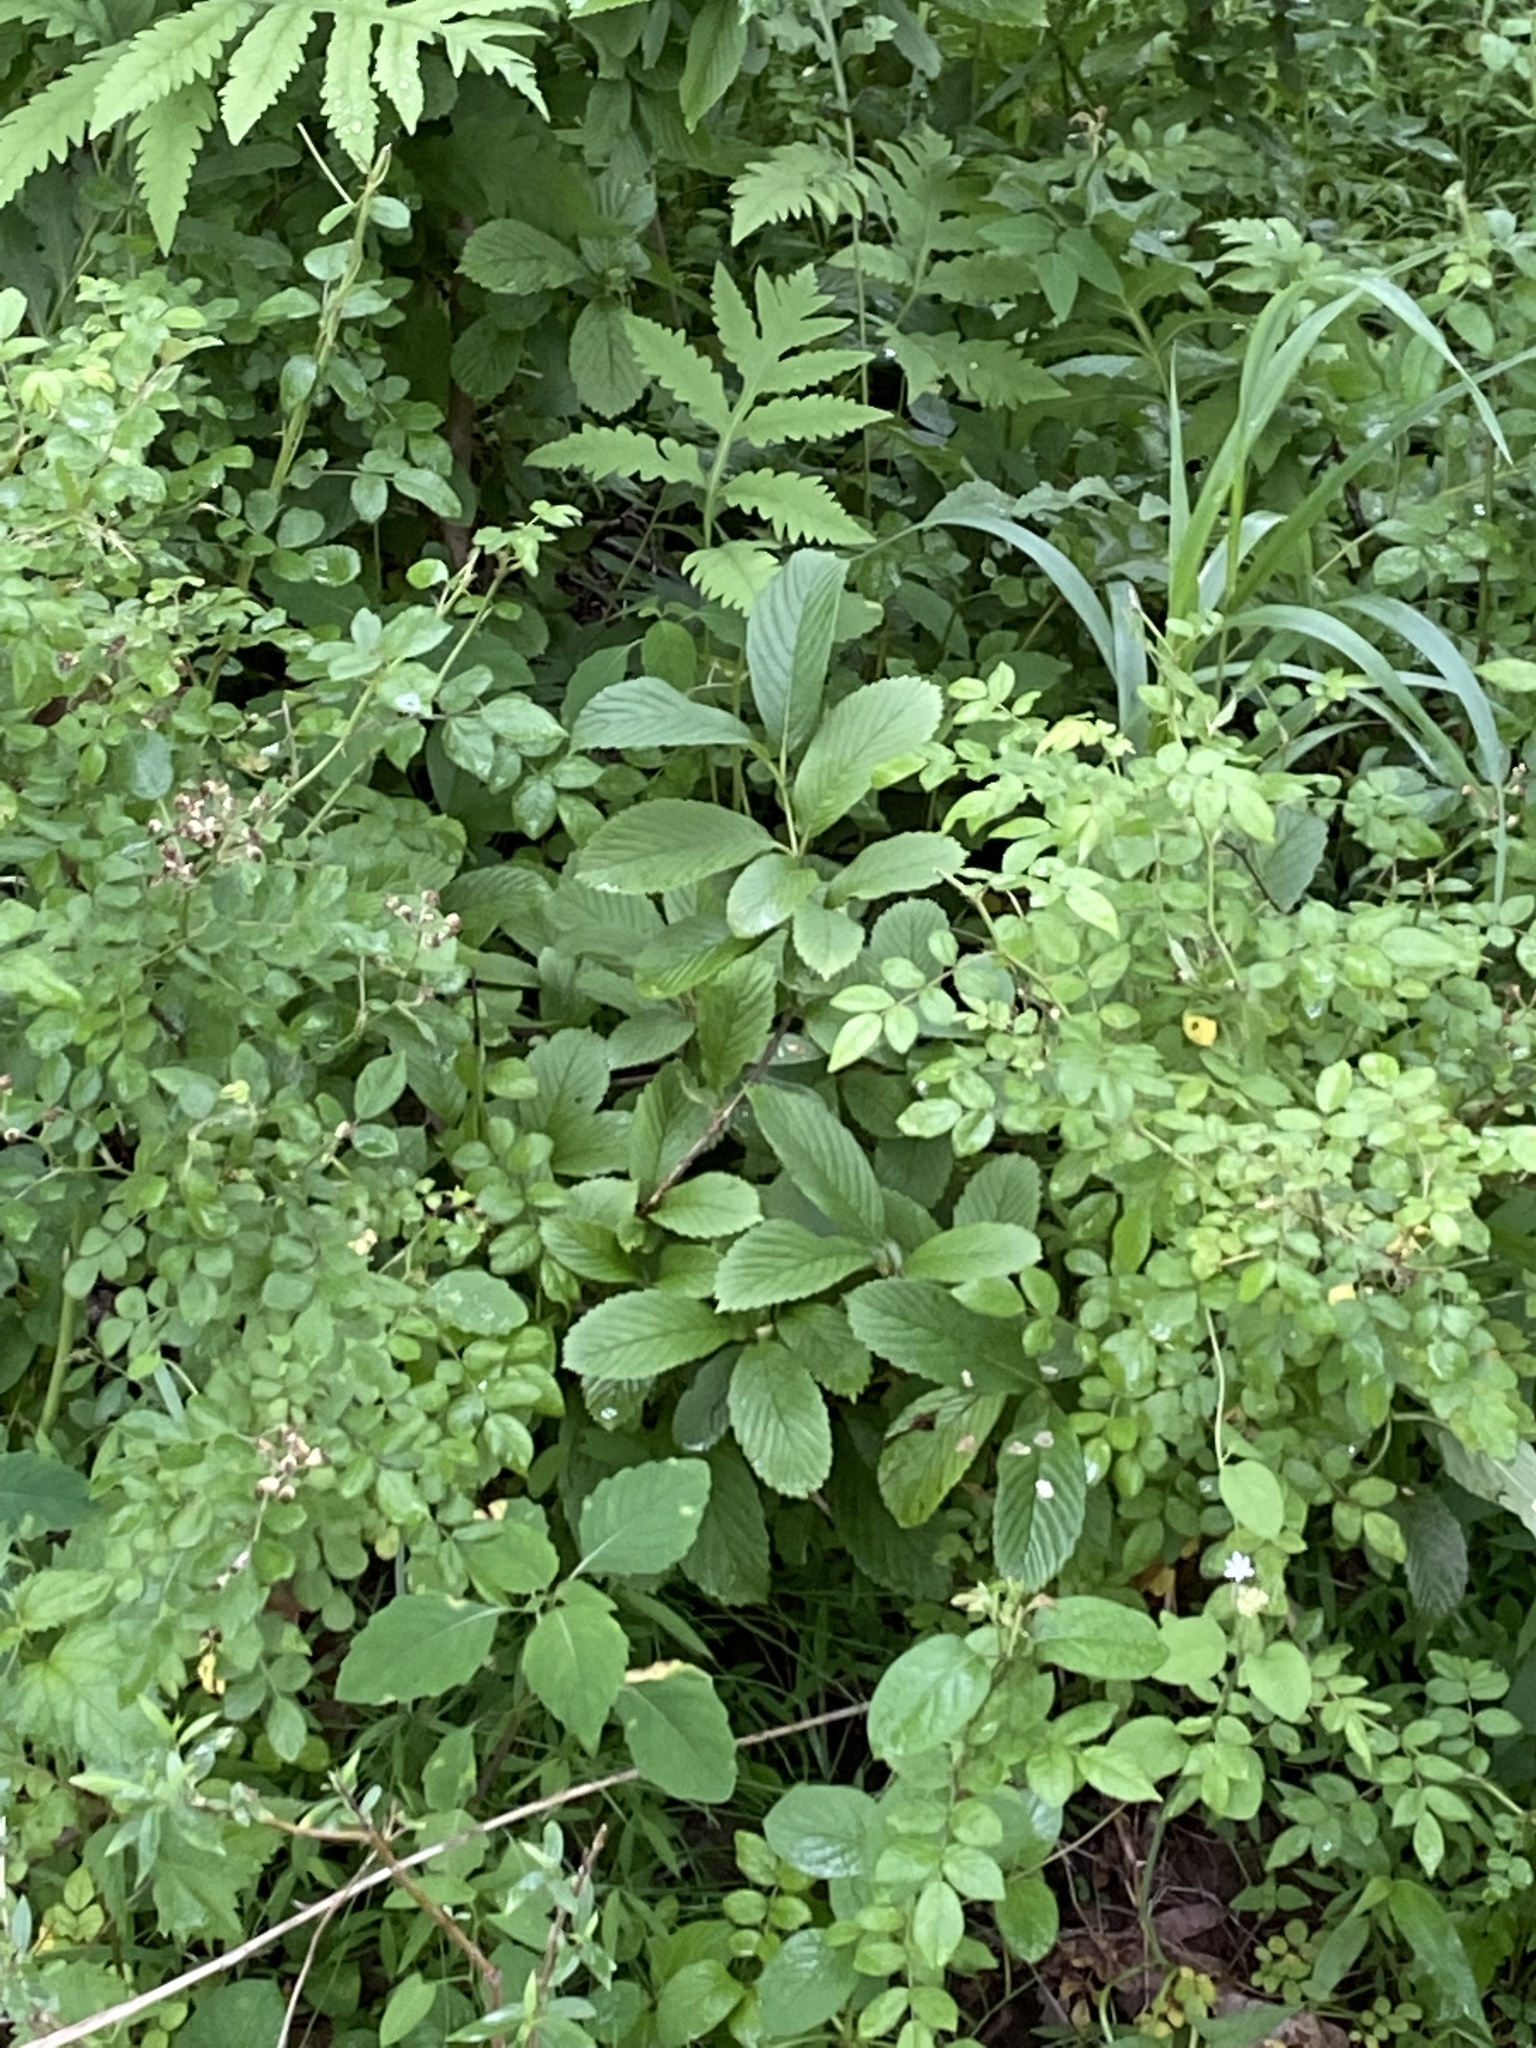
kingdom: Plantae
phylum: Tracheophyta
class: Magnoliopsida
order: Dipsacales
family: Viburnaceae
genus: Viburnum
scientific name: Viburnum sieboldii
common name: Siebold's arrowwood
